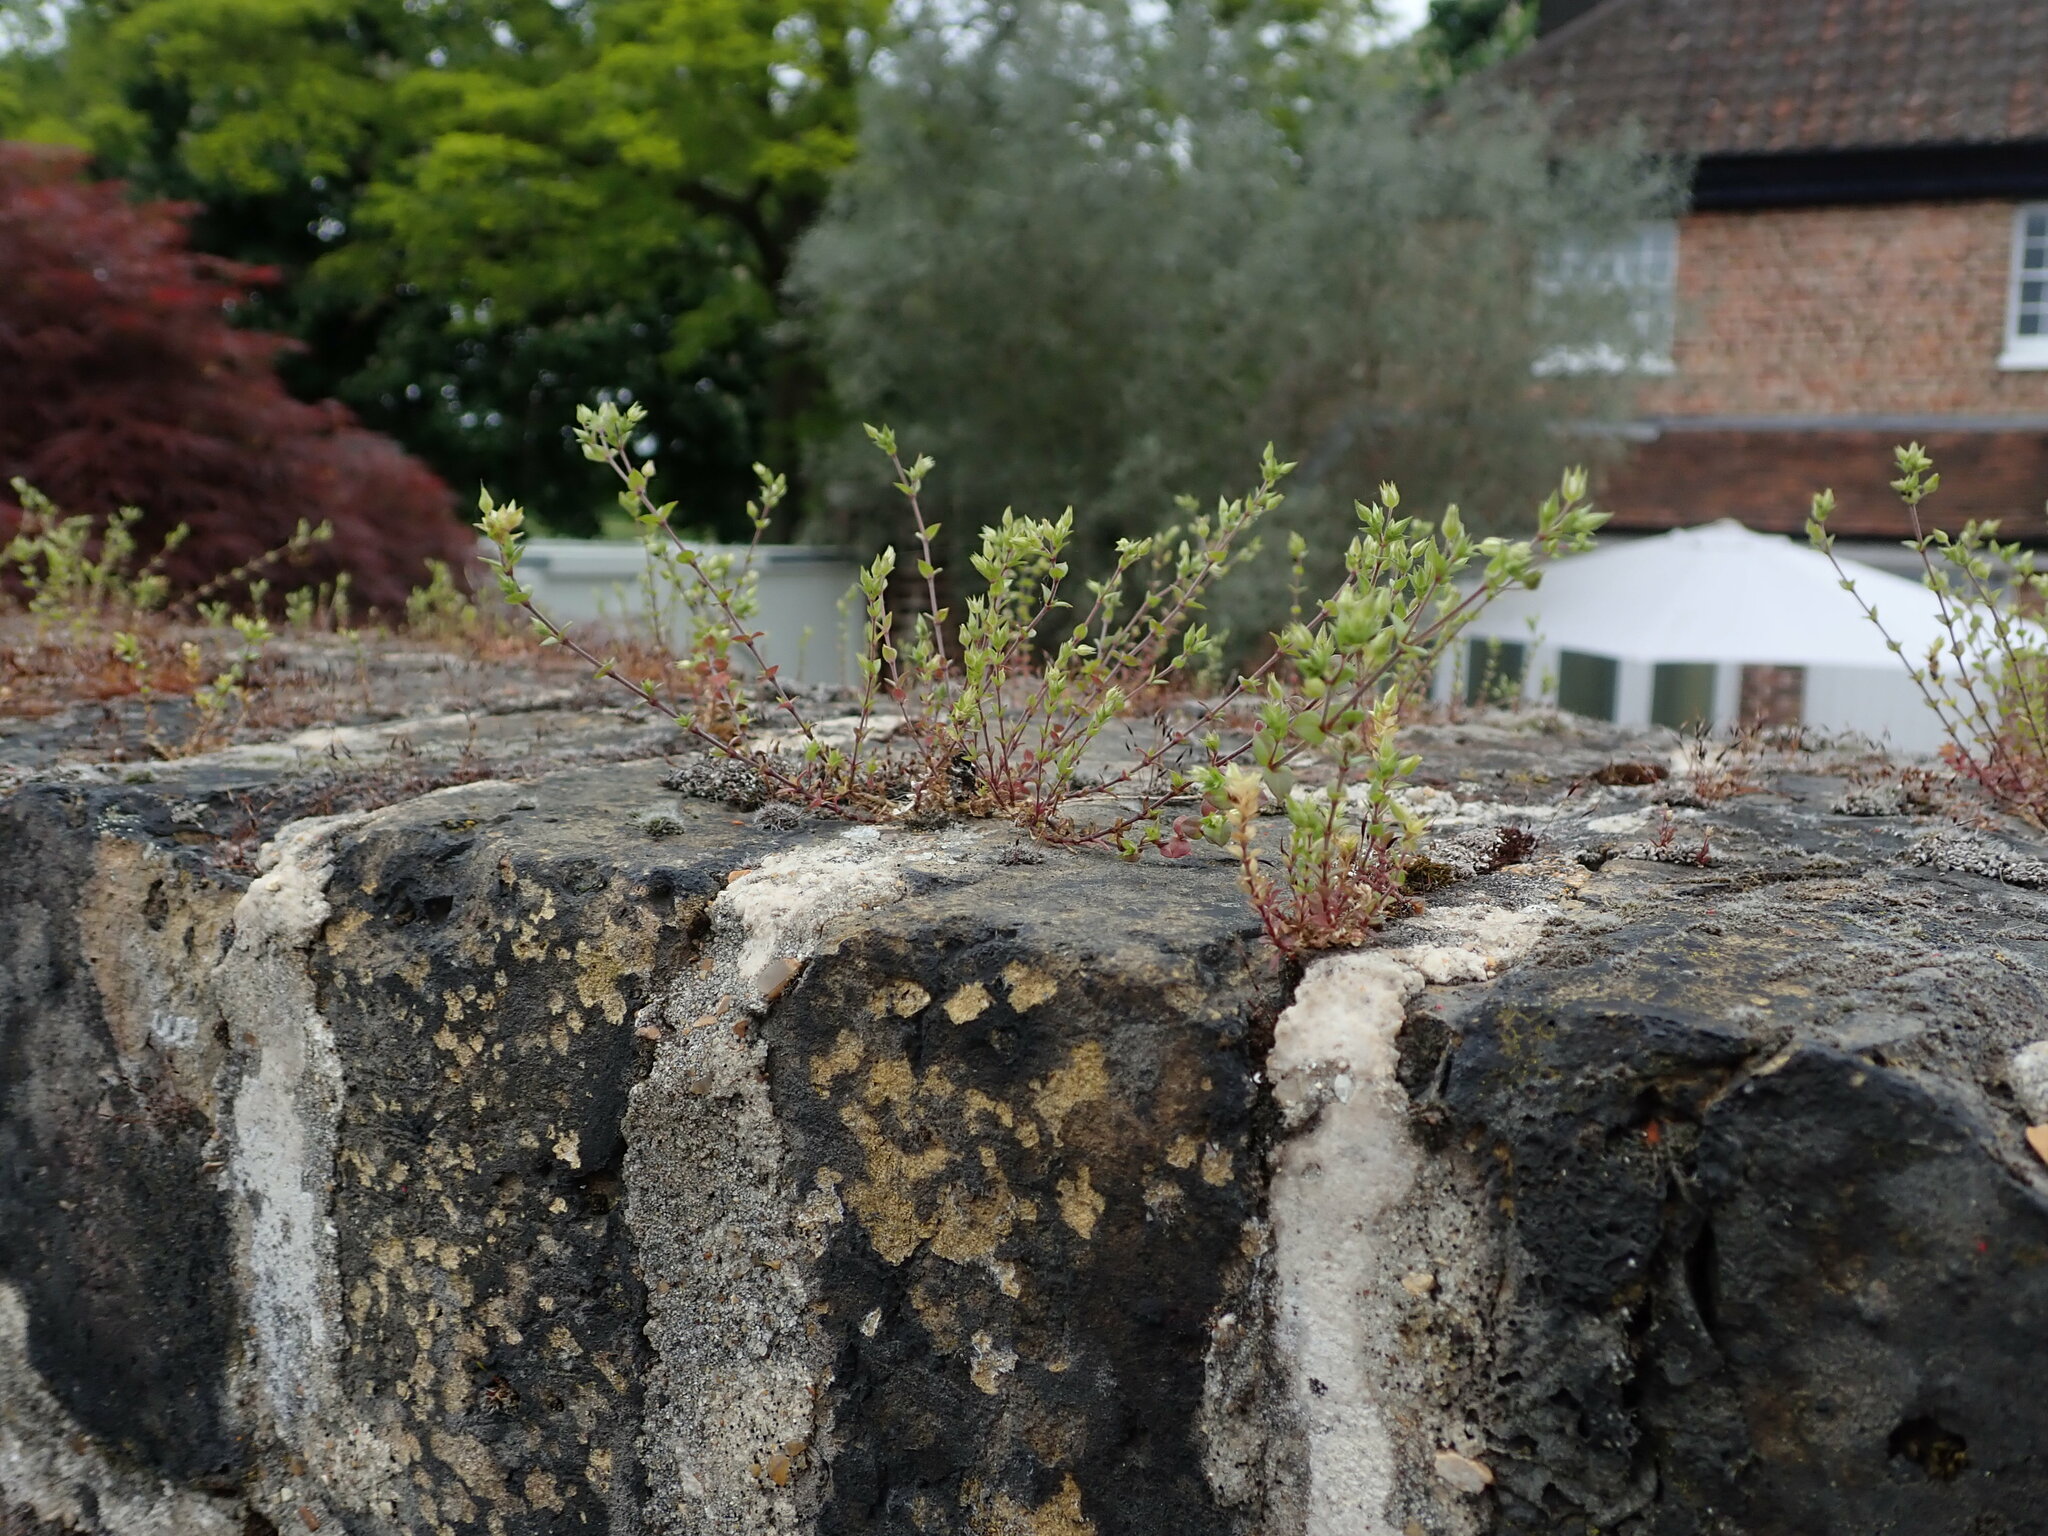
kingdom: Plantae
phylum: Tracheophyta
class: Magnoliopsida
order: Caryophyllales
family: Caryophyllaceae
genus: Arenaria
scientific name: Arenaria serpyllifolia
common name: Thyme-leaved sandwort
